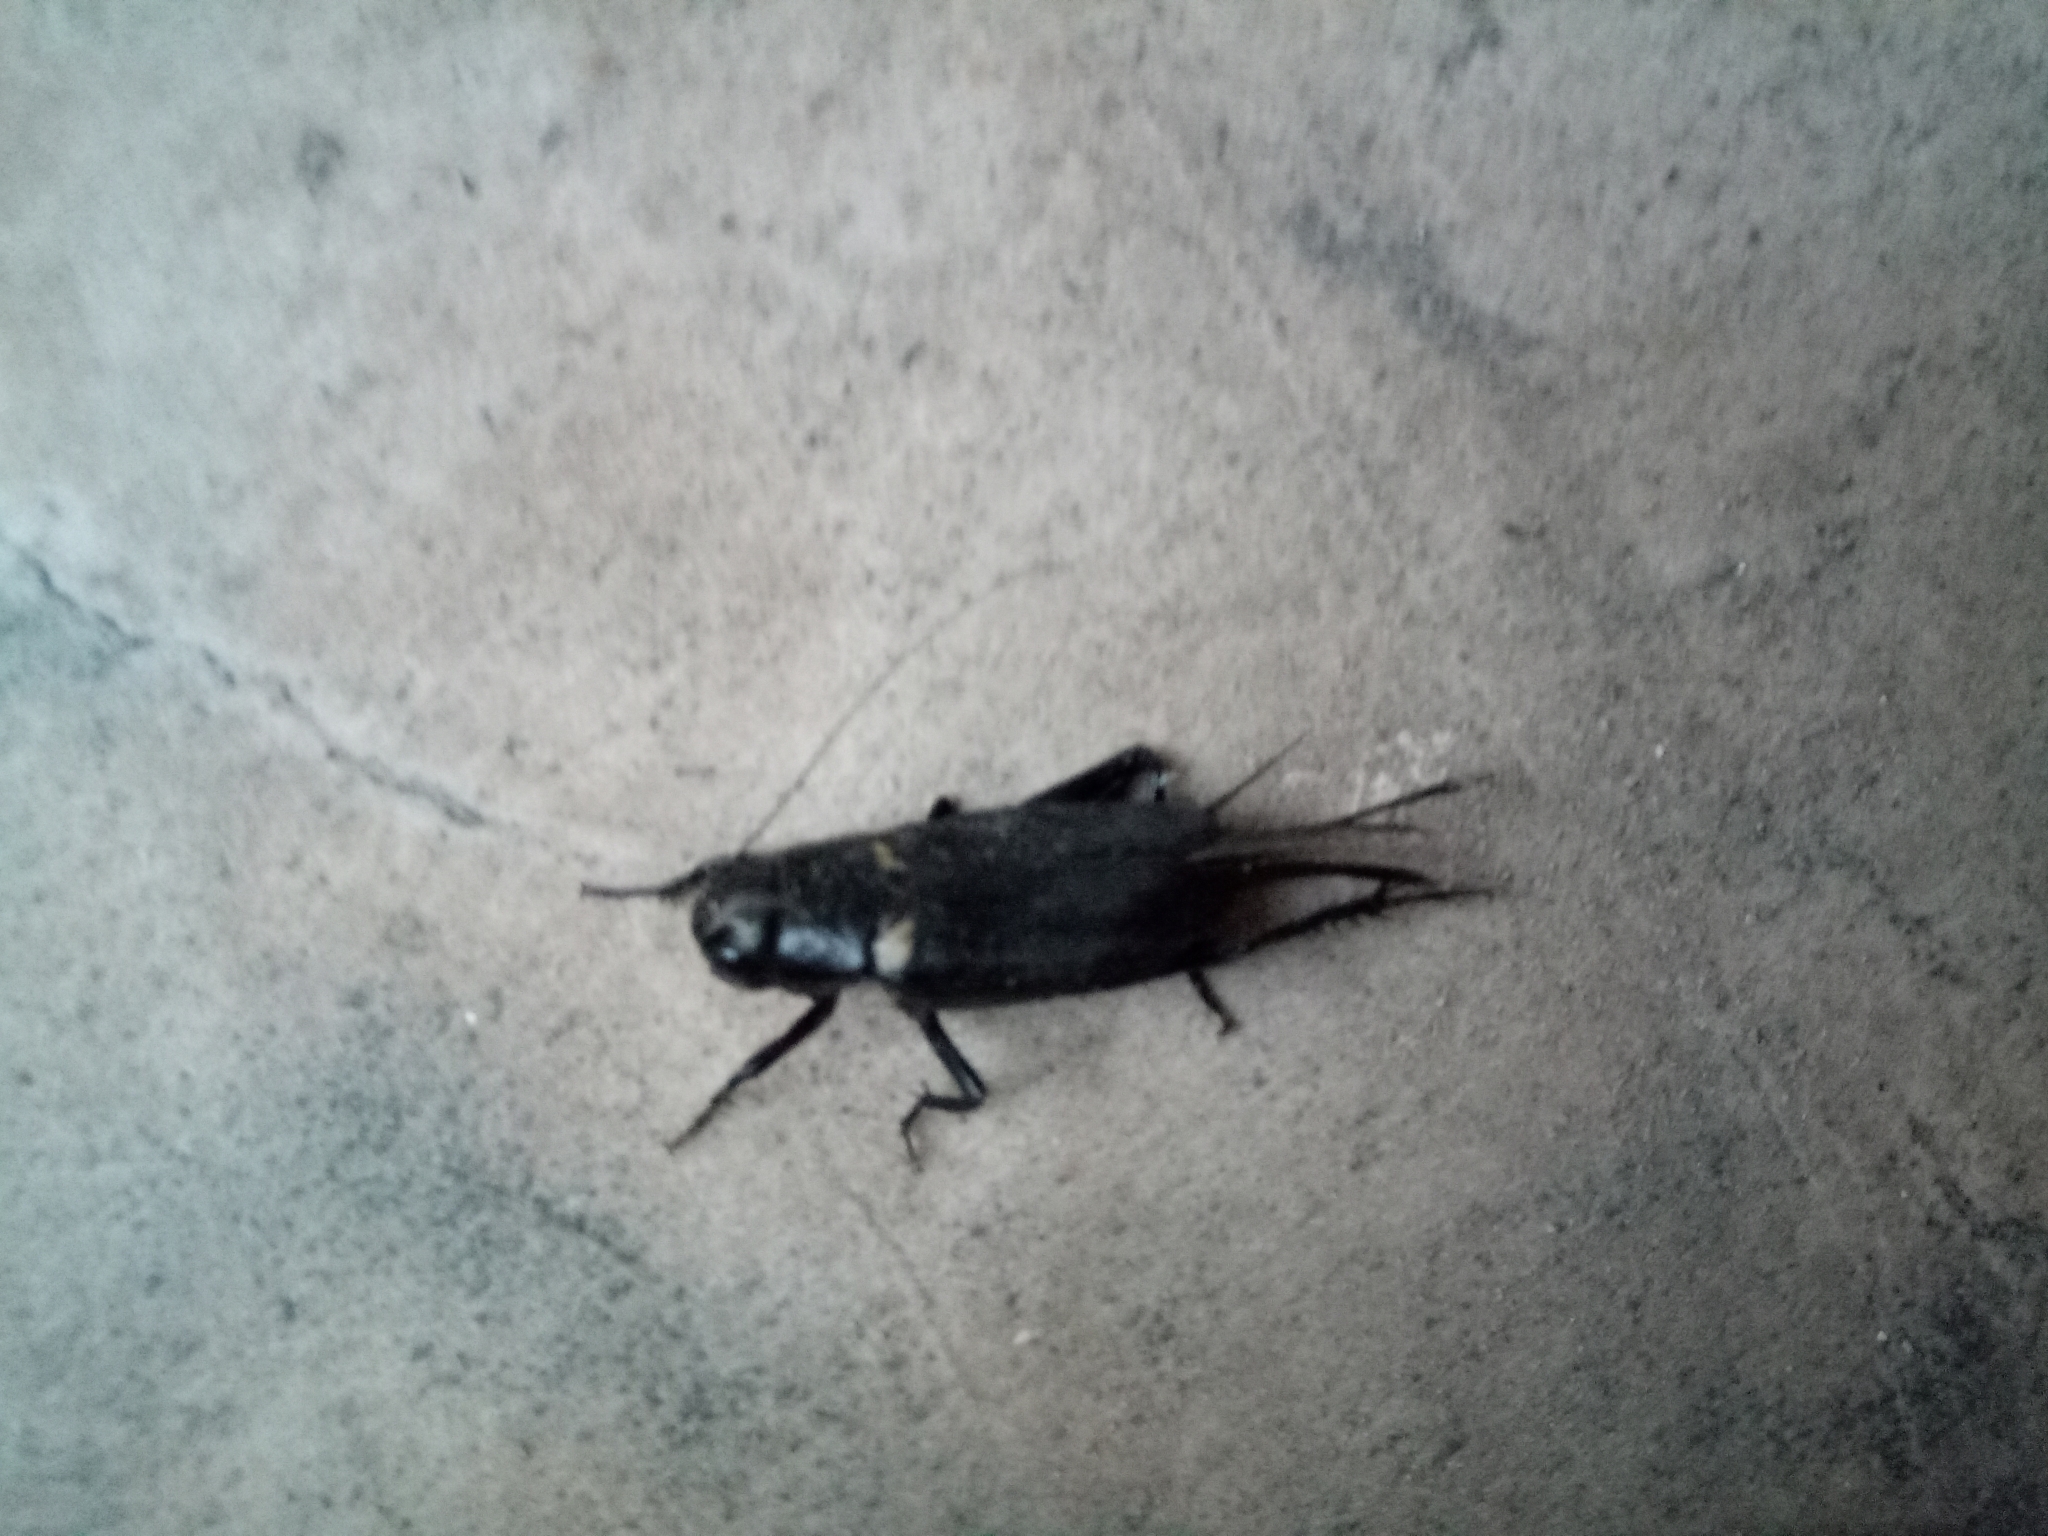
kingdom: Animalia
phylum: Arthropoda
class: Insecta
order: Orthoptera
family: Gryllidae
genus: Gryllus
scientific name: Gryllus bimaculatus
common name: Two-spotted cricket
